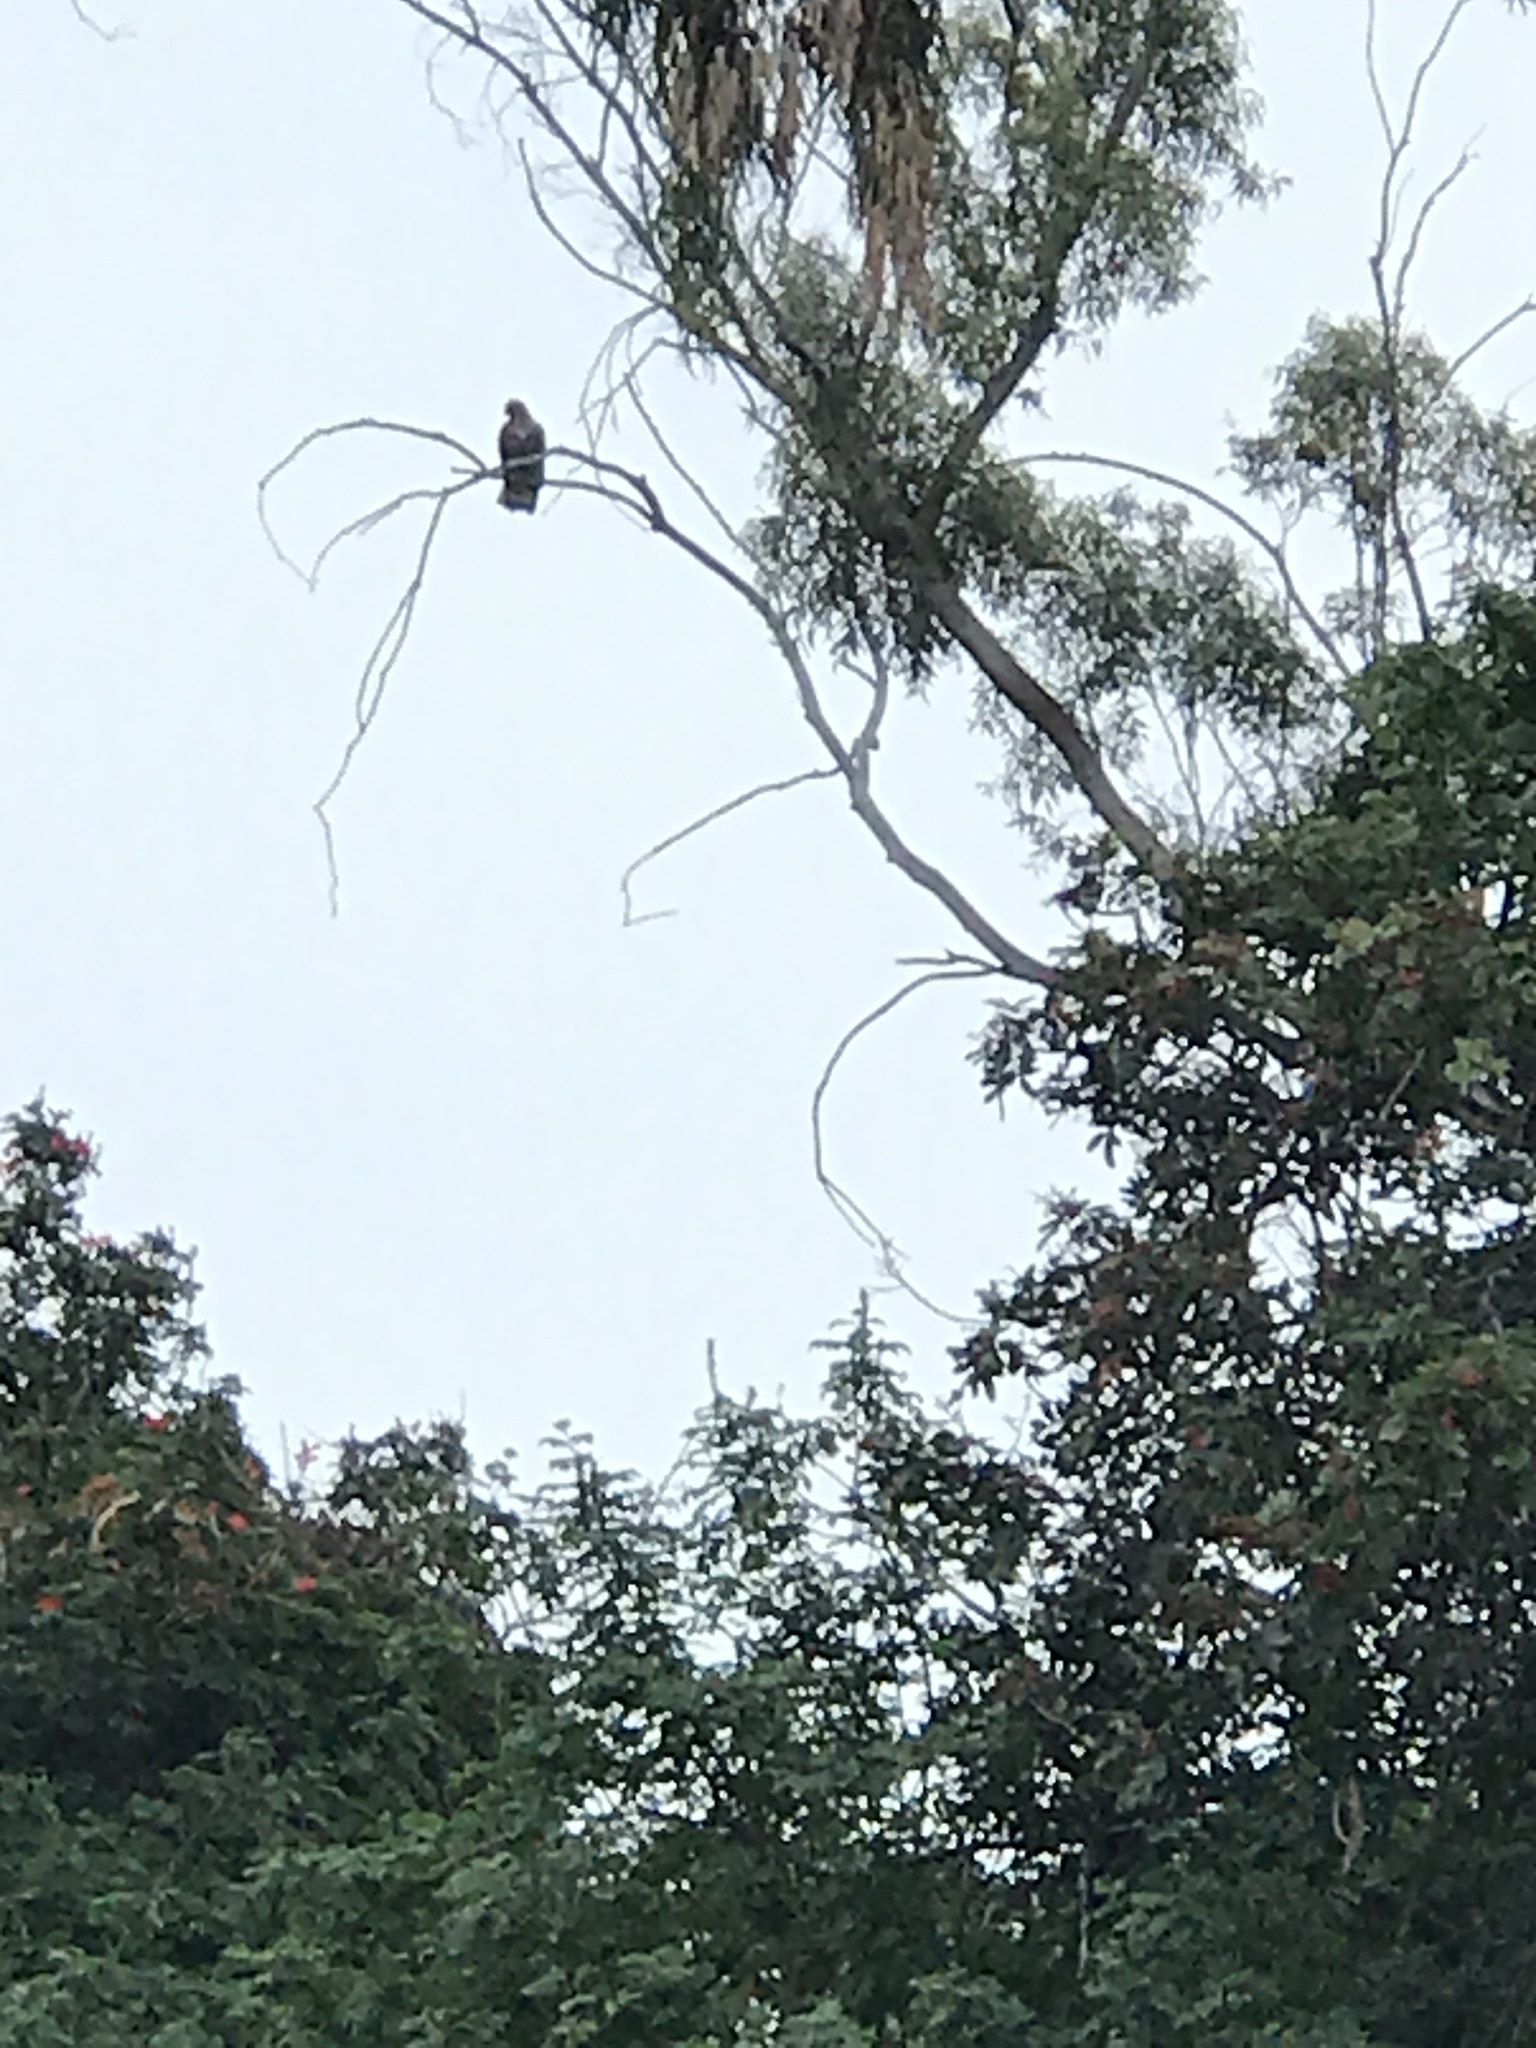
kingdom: Animalia
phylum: Chordata
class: Aves
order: Accipitriformes
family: Accipitridae
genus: Buteo
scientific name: Buteo jamaicensis
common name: Red-tailed hawk
